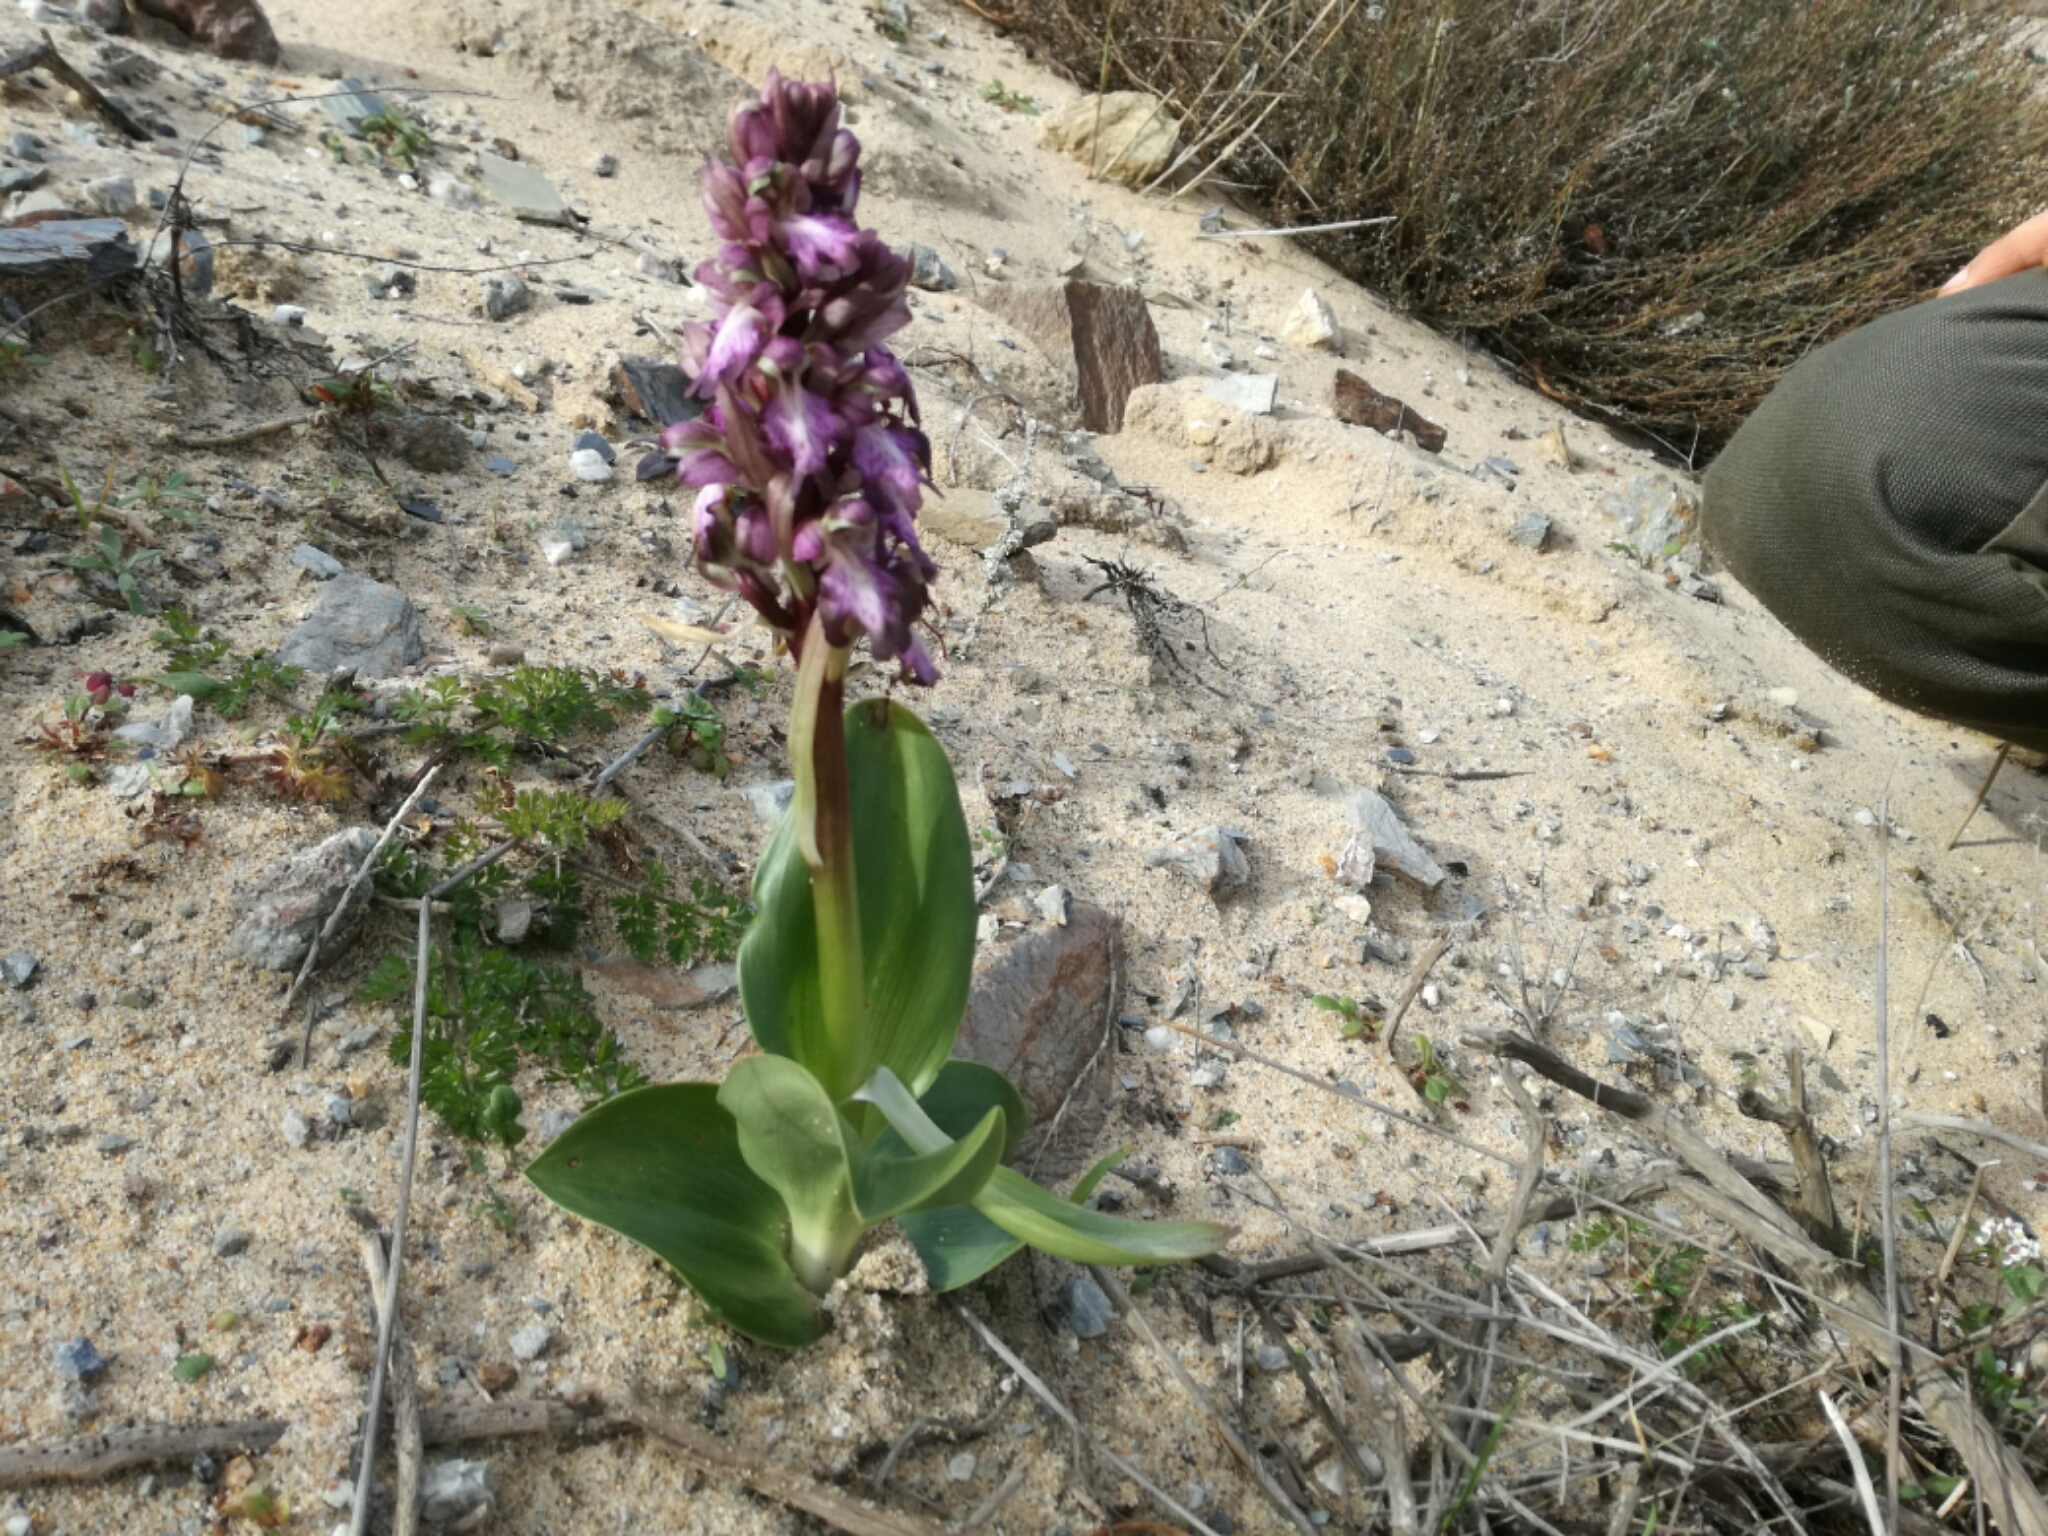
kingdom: Plantae
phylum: Tracheophyta
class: Liliopsida
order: Asparagales
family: Orchidaceae
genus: Himantoglossum
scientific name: Himantoglossum robertianum
